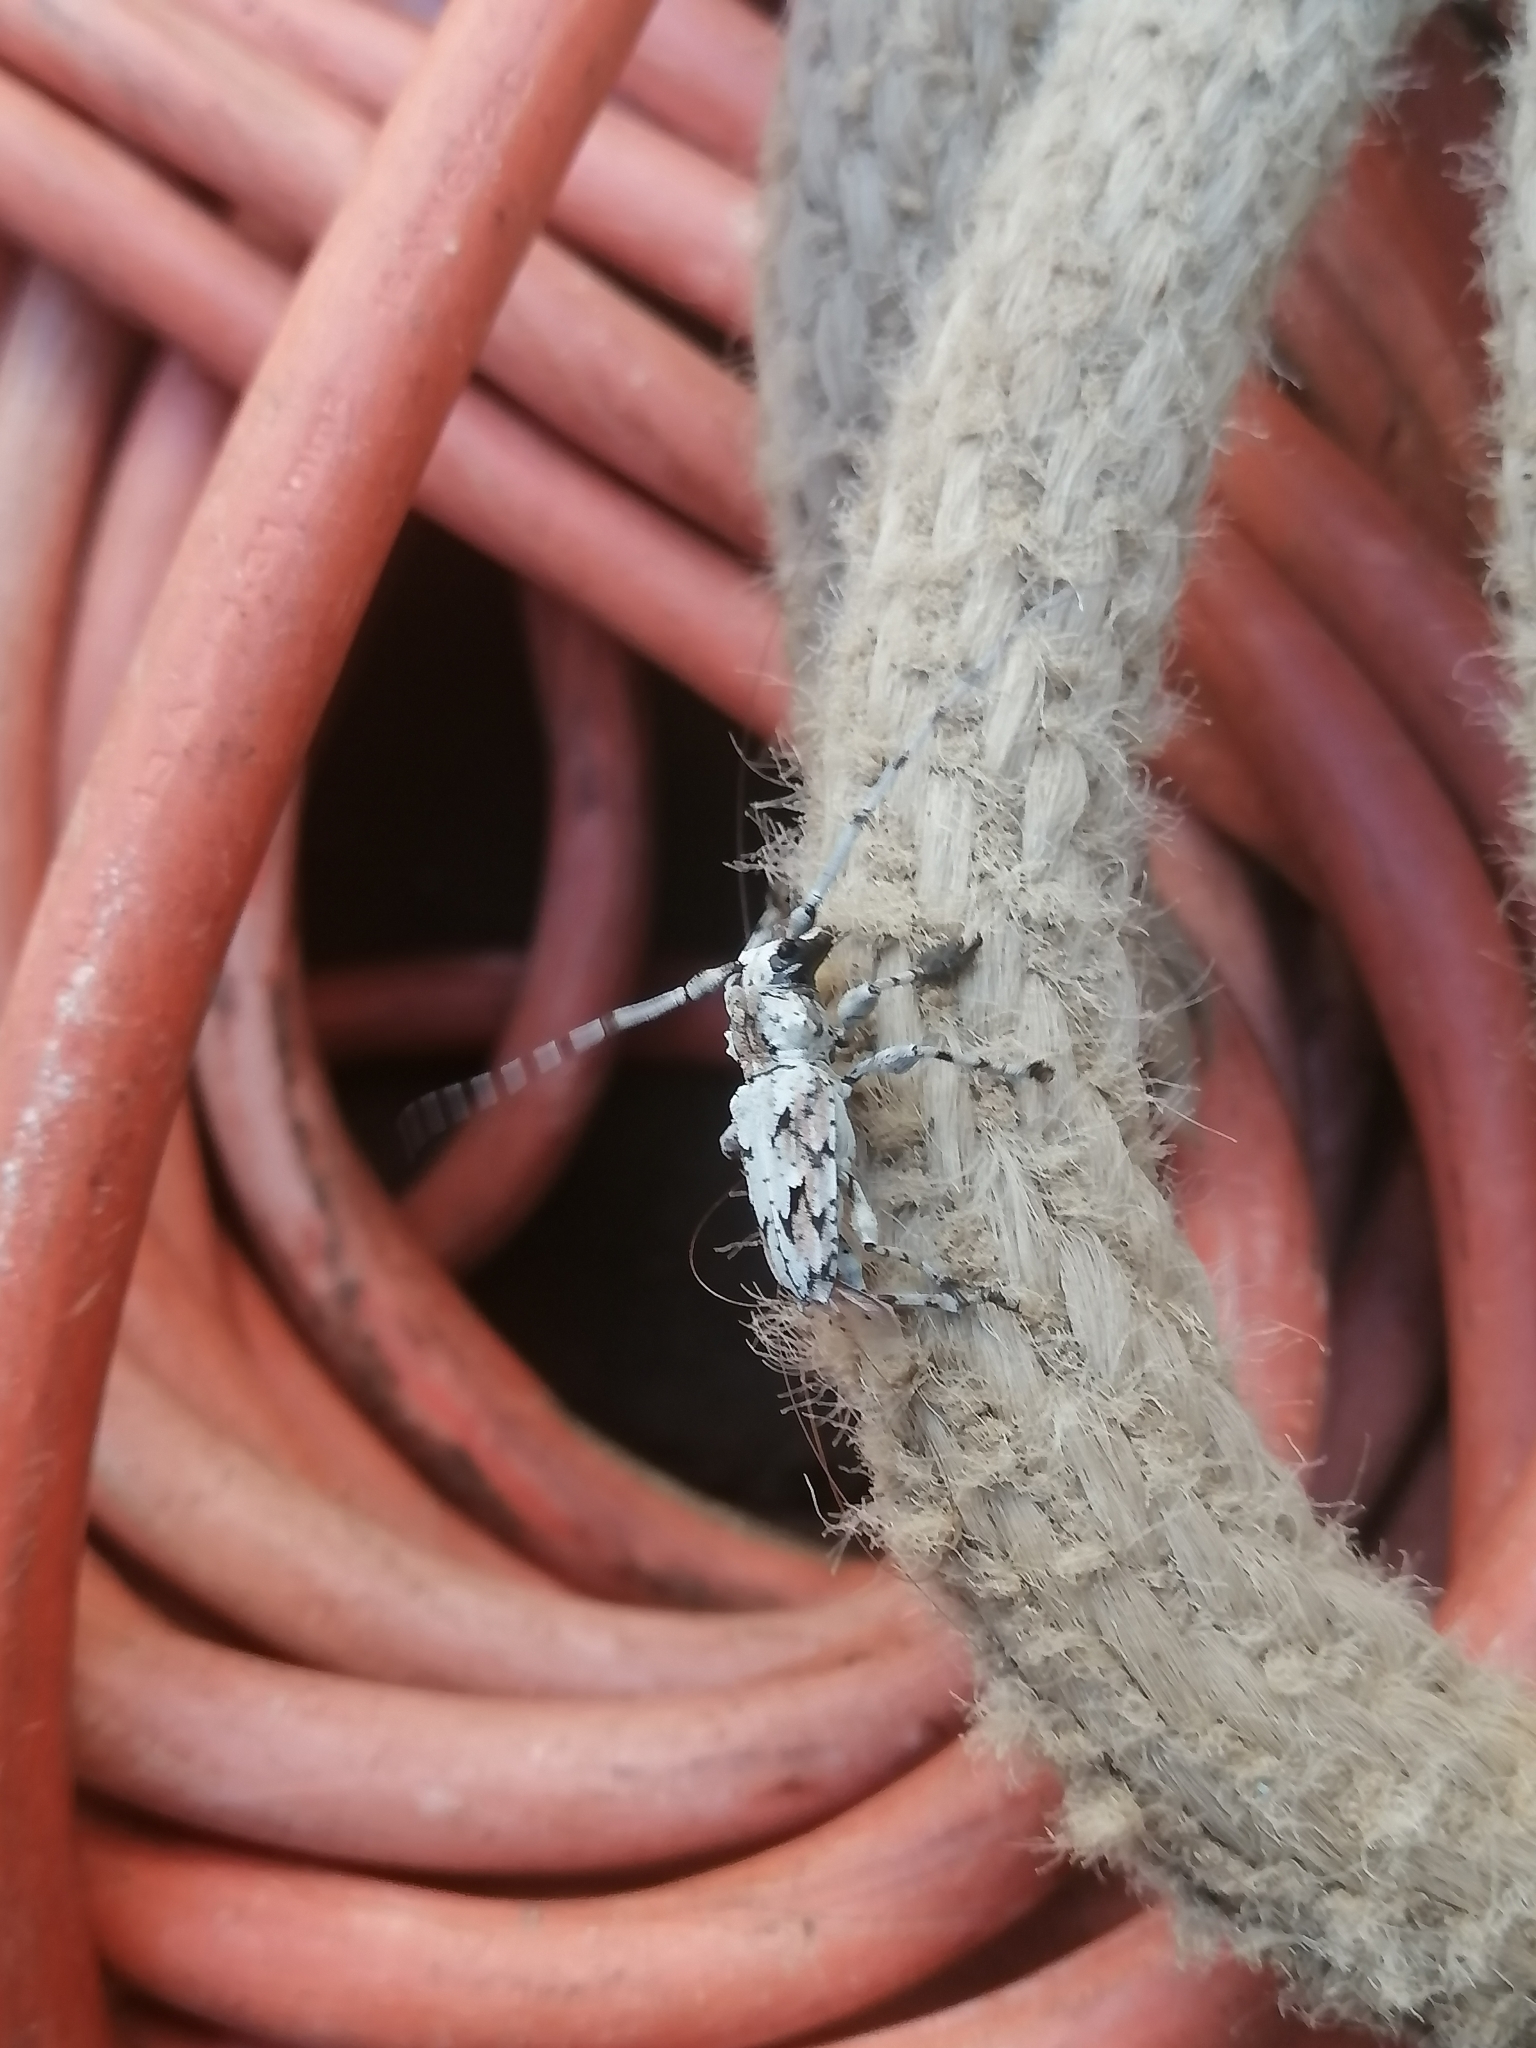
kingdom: Animalia
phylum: Arthropoda
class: Insecta
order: Coleoptera
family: Cerambycidae
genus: Steirastoma
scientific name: Steirastoma lituratum
